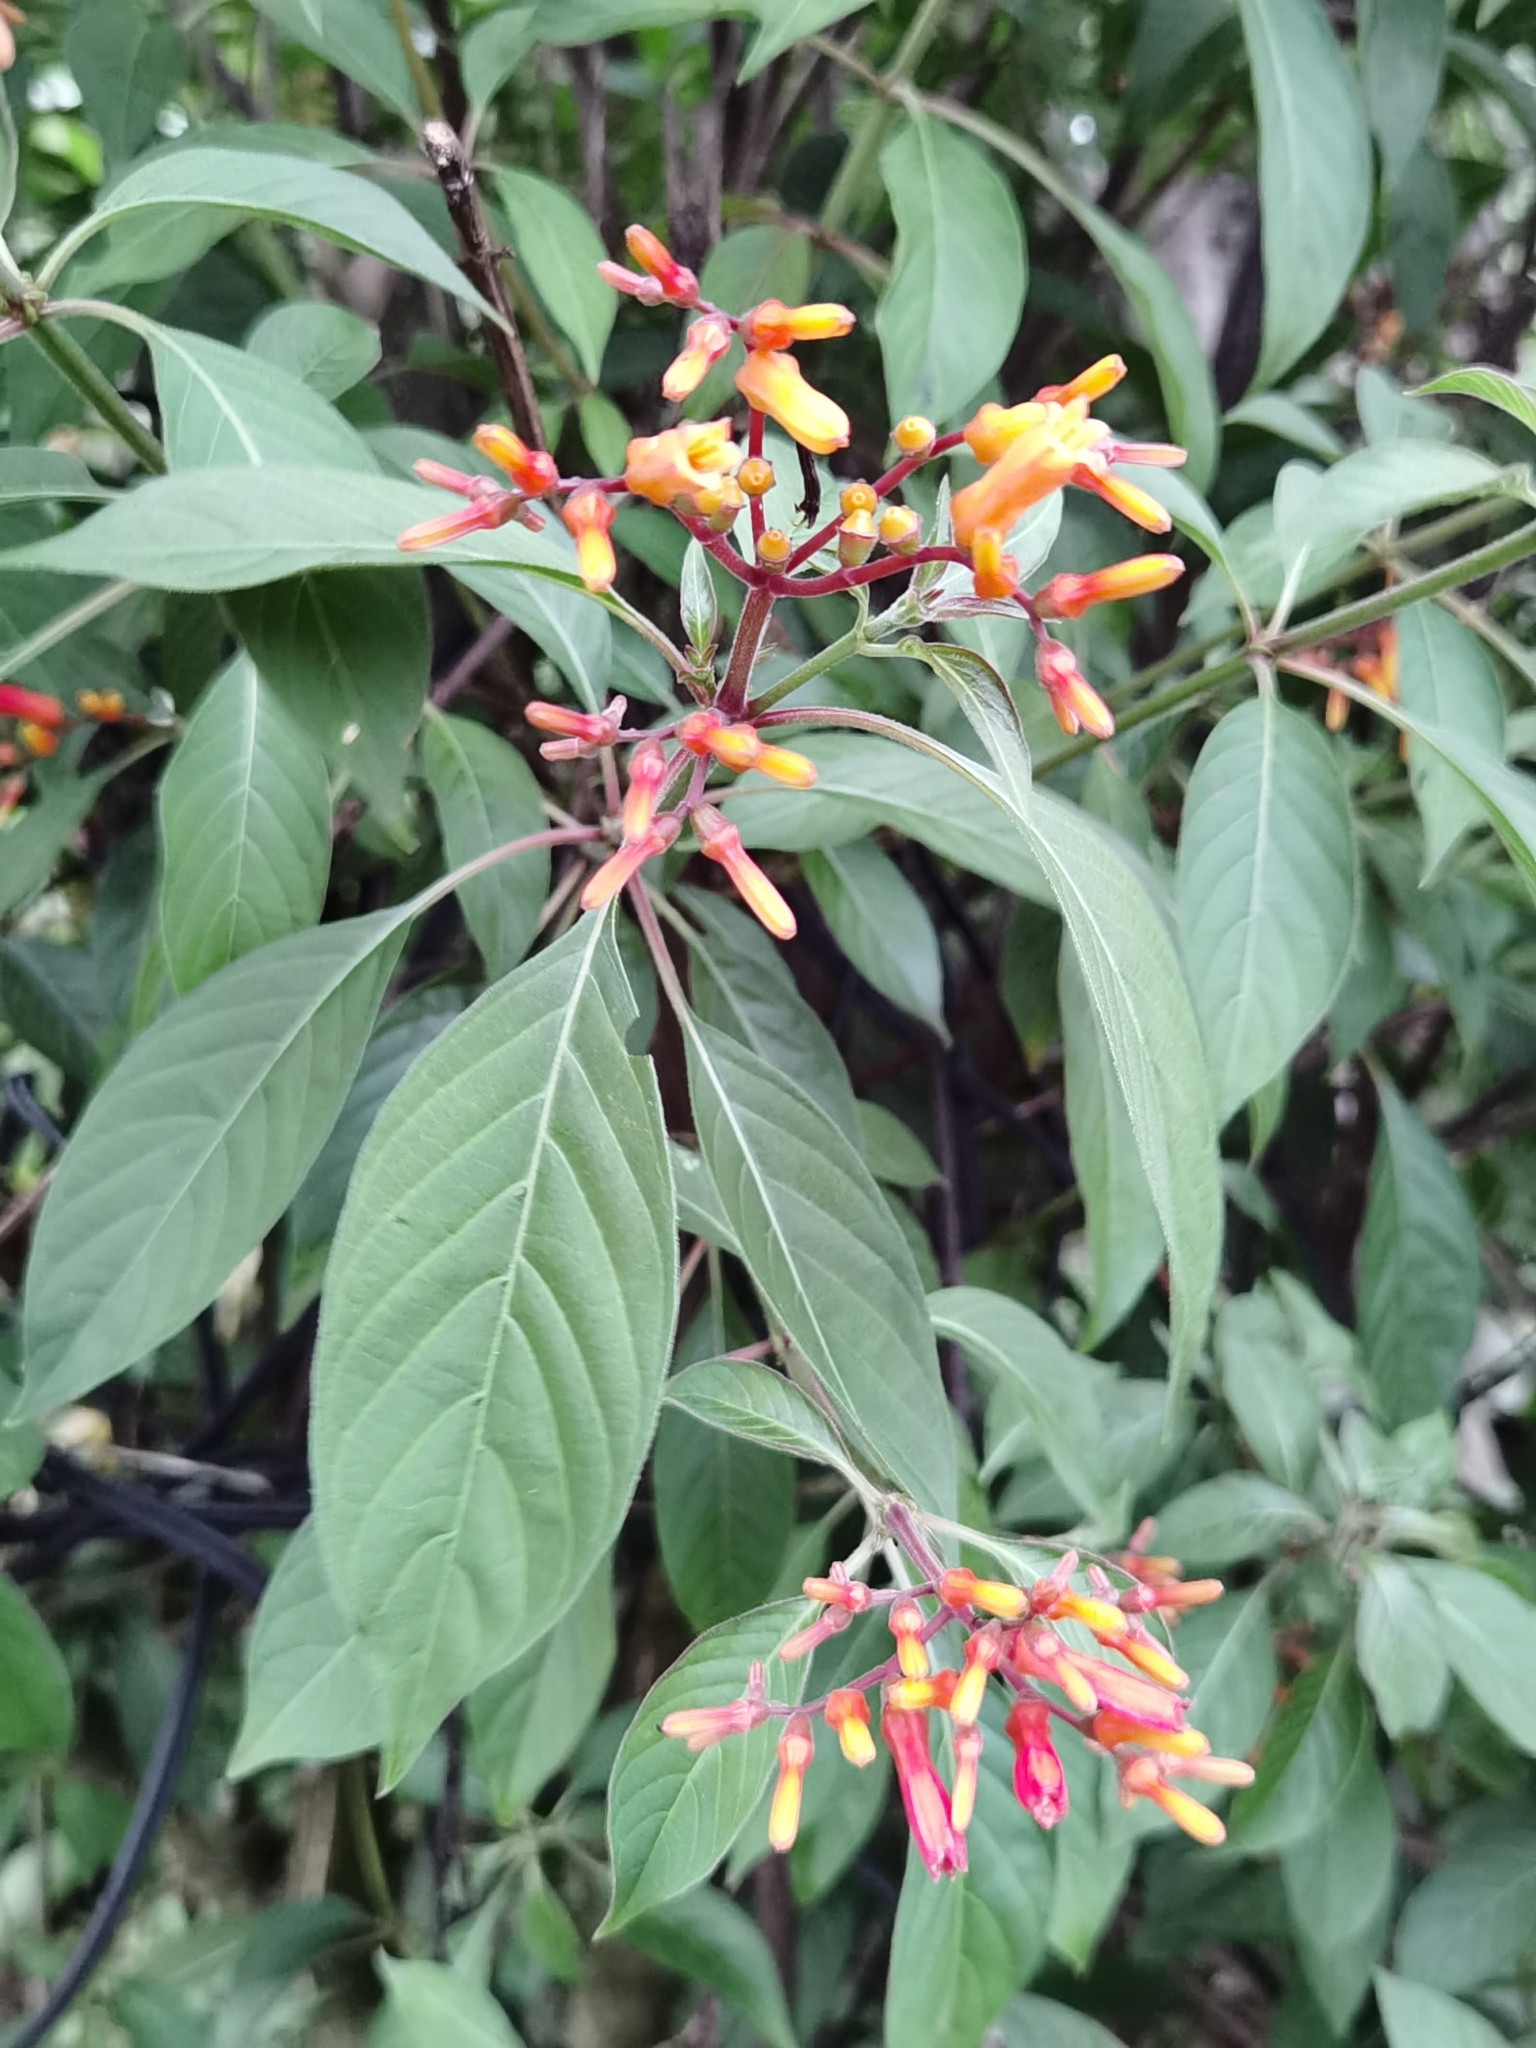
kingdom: Plantae
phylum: Tracheophyta
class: Magnoliopsida
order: Gentianales
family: Rubiaceae
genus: Hamelia
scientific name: Hamelia patens
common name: Redhead
